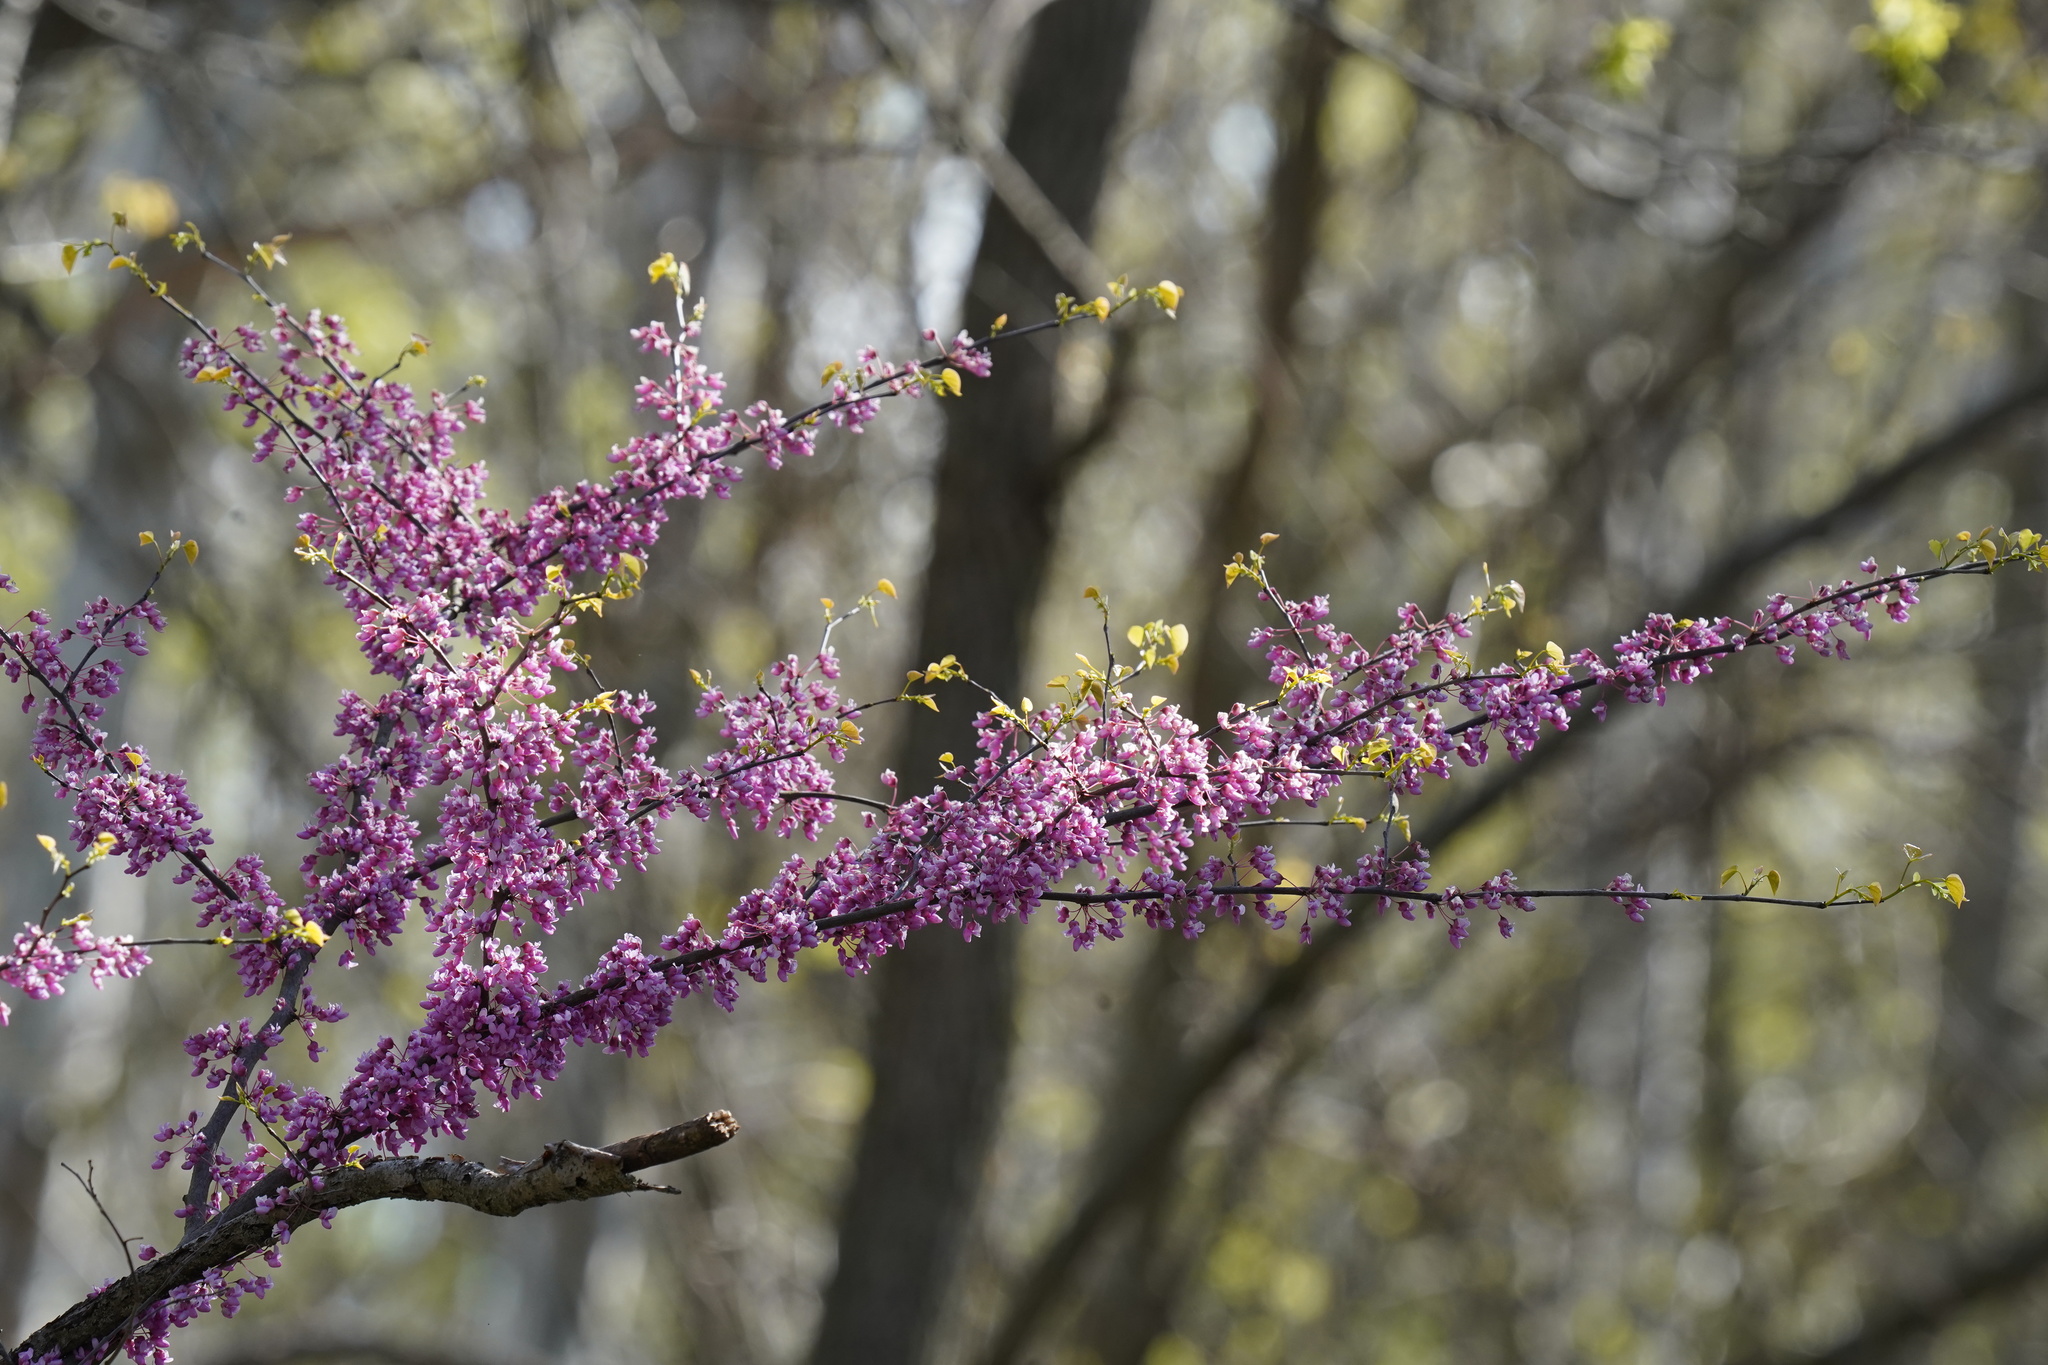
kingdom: Plantae
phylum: Tracheophyta
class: Magnoliopsida
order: Fabales
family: Fabaceae
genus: Cercis
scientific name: Cercis canadensis
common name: Eastern redbud
